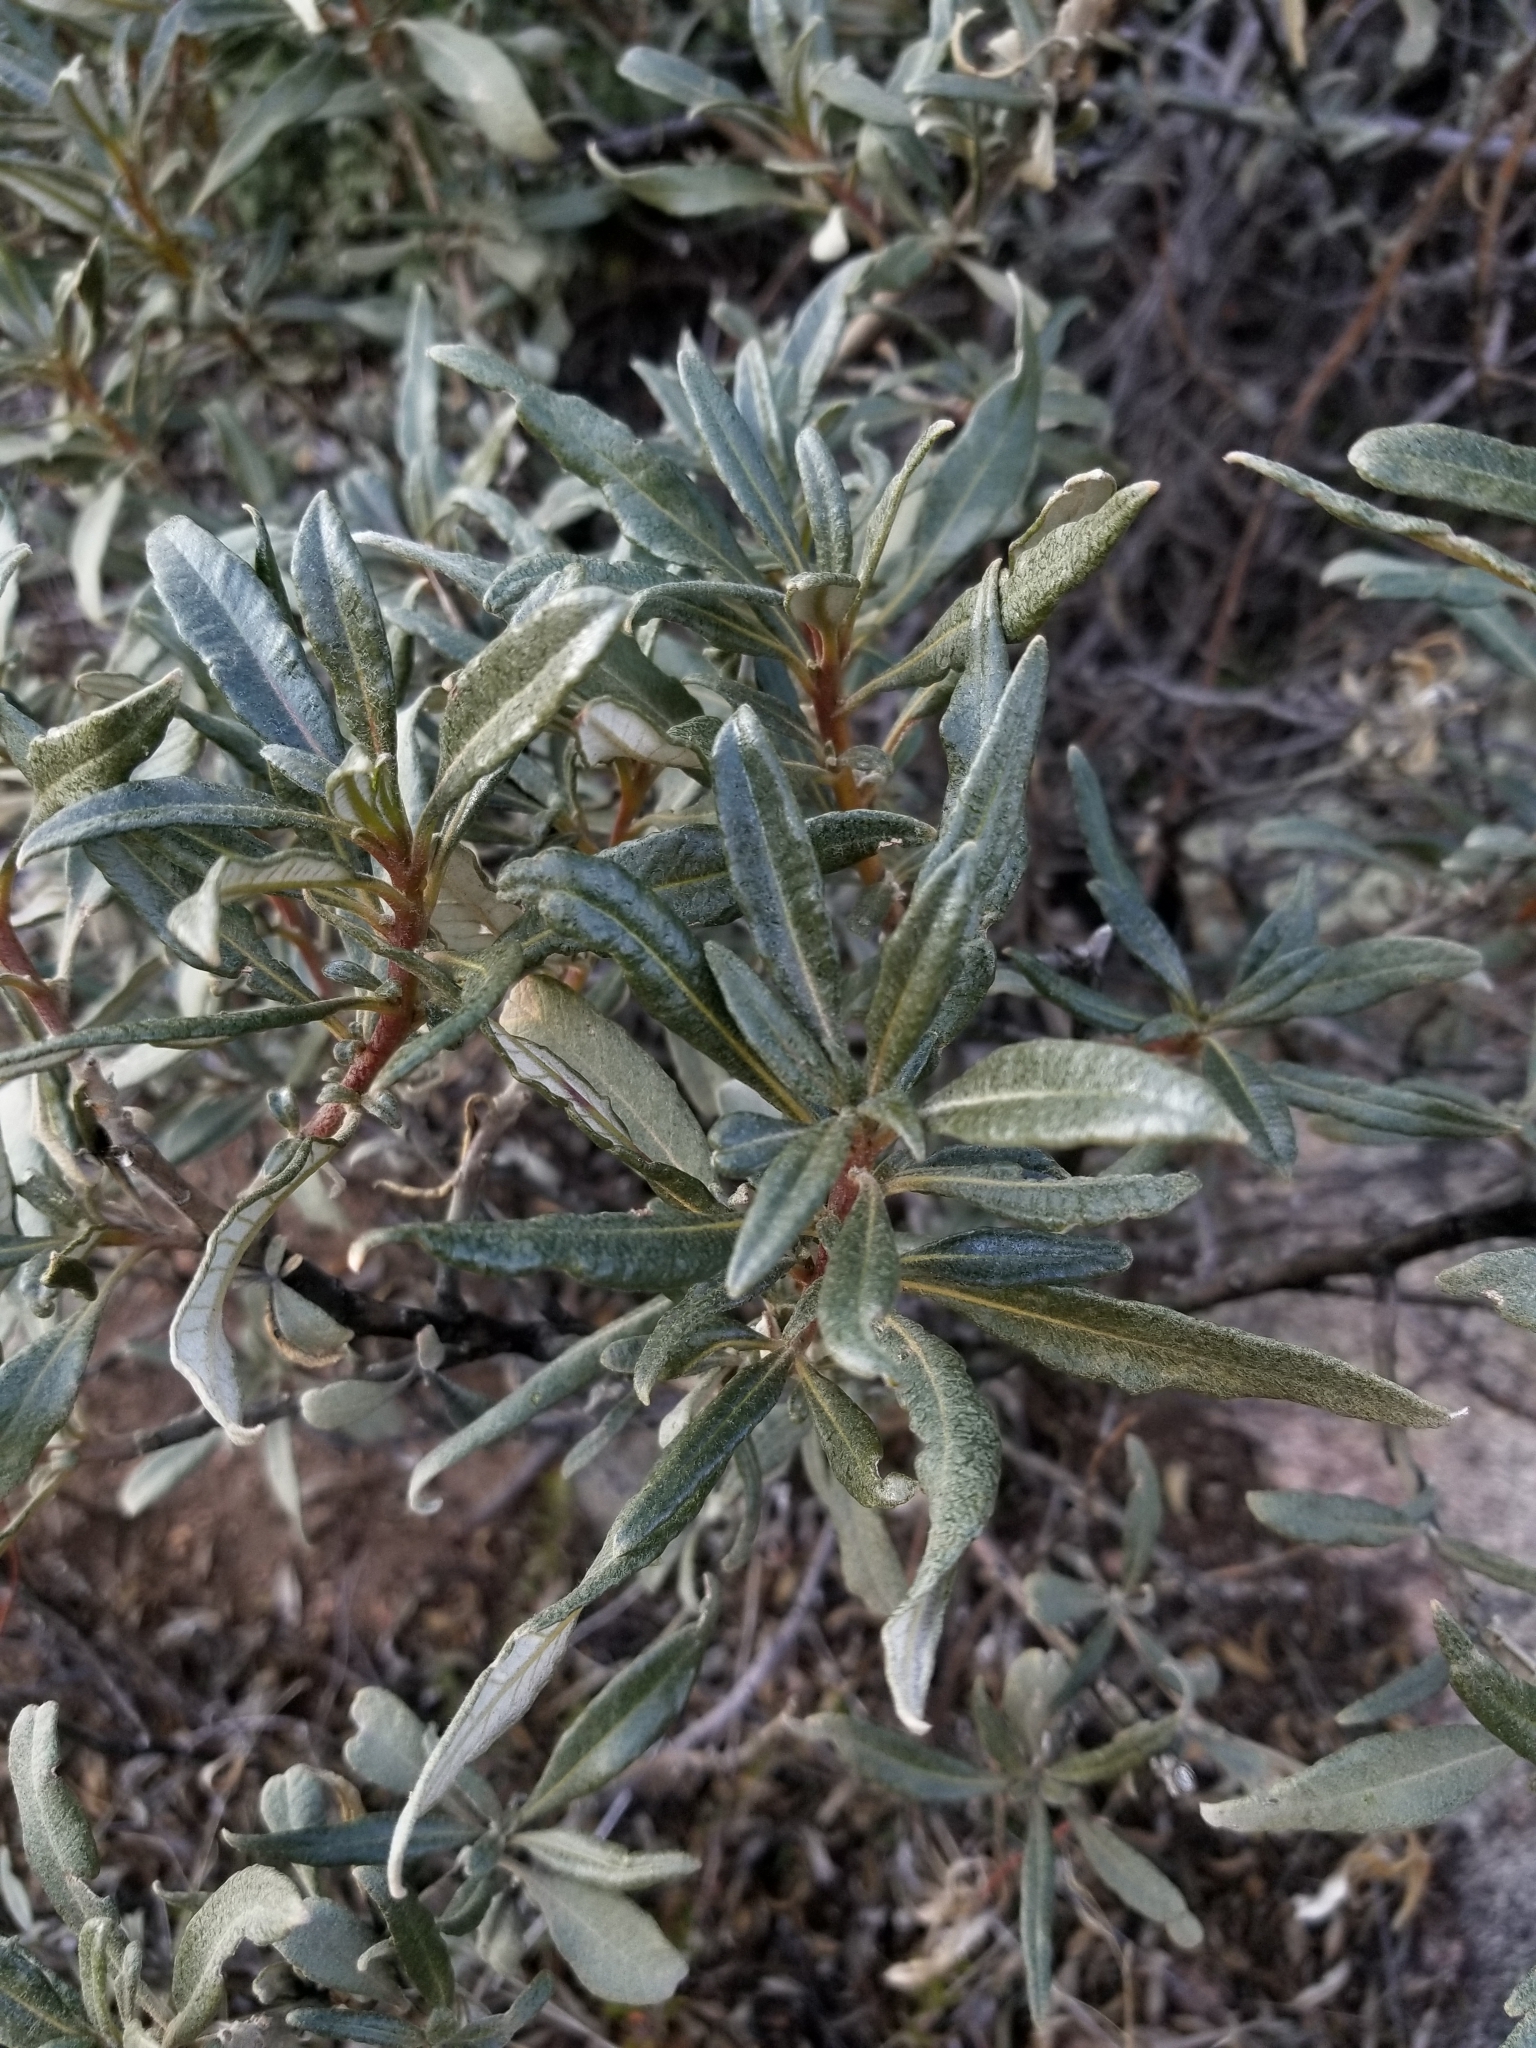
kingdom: Plantae
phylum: Tracheophyta
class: Magnoliopsida
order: Boraginales
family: Namaceae
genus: Eriodictyon
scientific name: Eriodictyon trichocalyx
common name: Hairy yerba-santa
